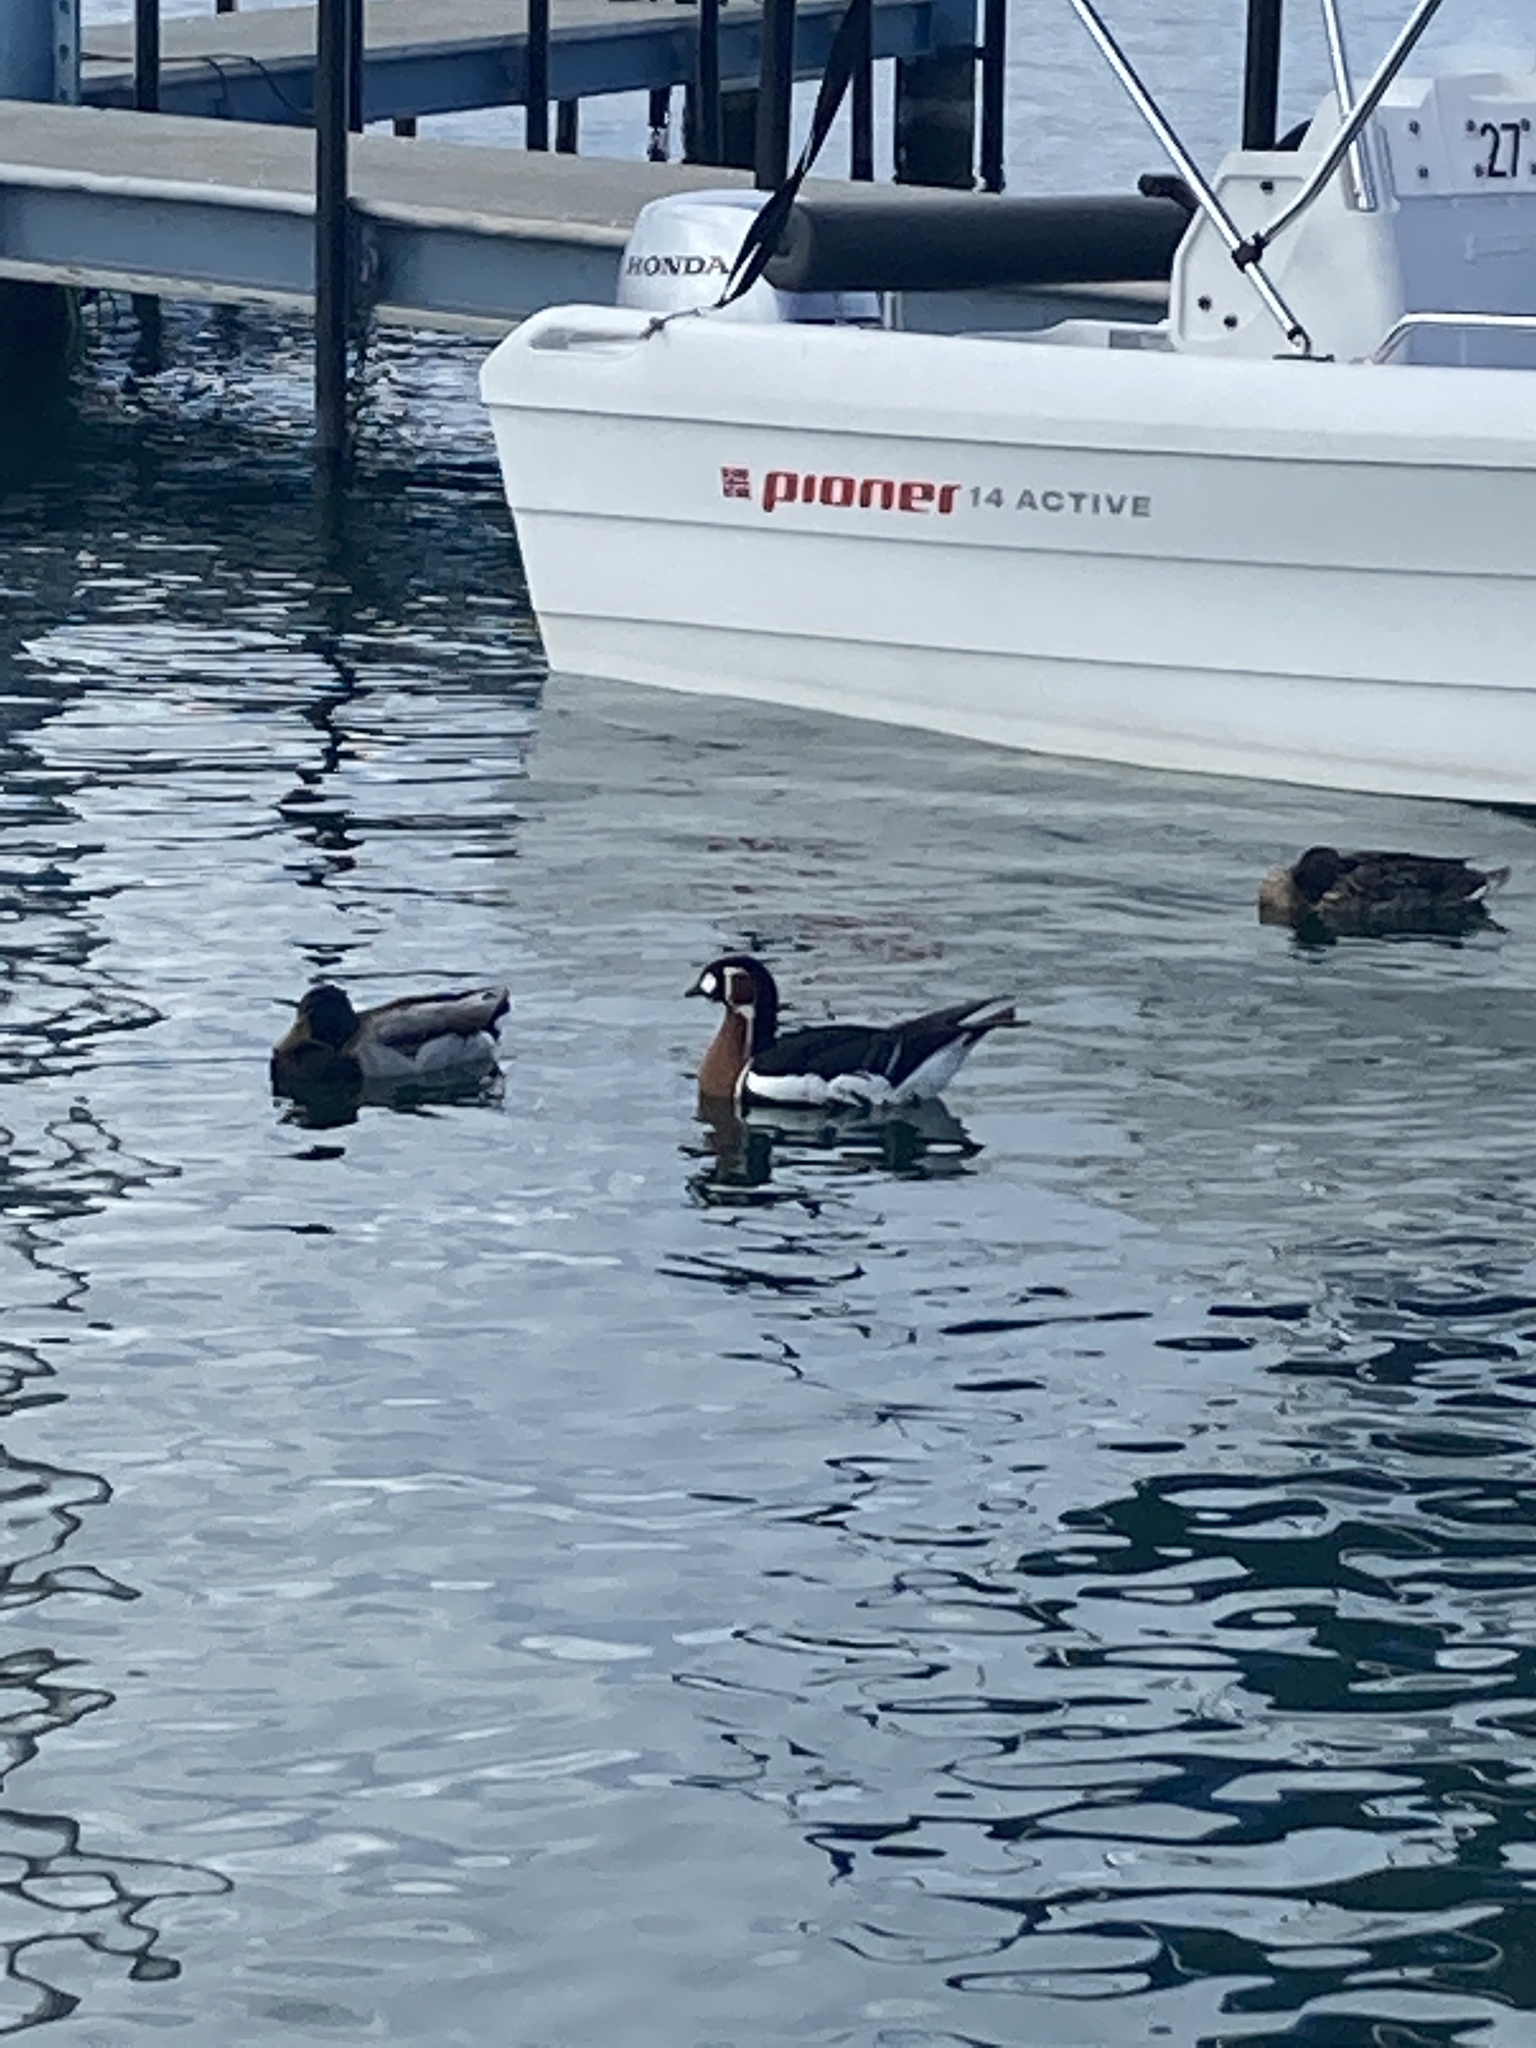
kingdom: Animalia
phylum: Chordata
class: Aves
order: Anseriformes
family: Anatidae
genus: Branta
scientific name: Branta ruficollis
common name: Red-breasted goose
